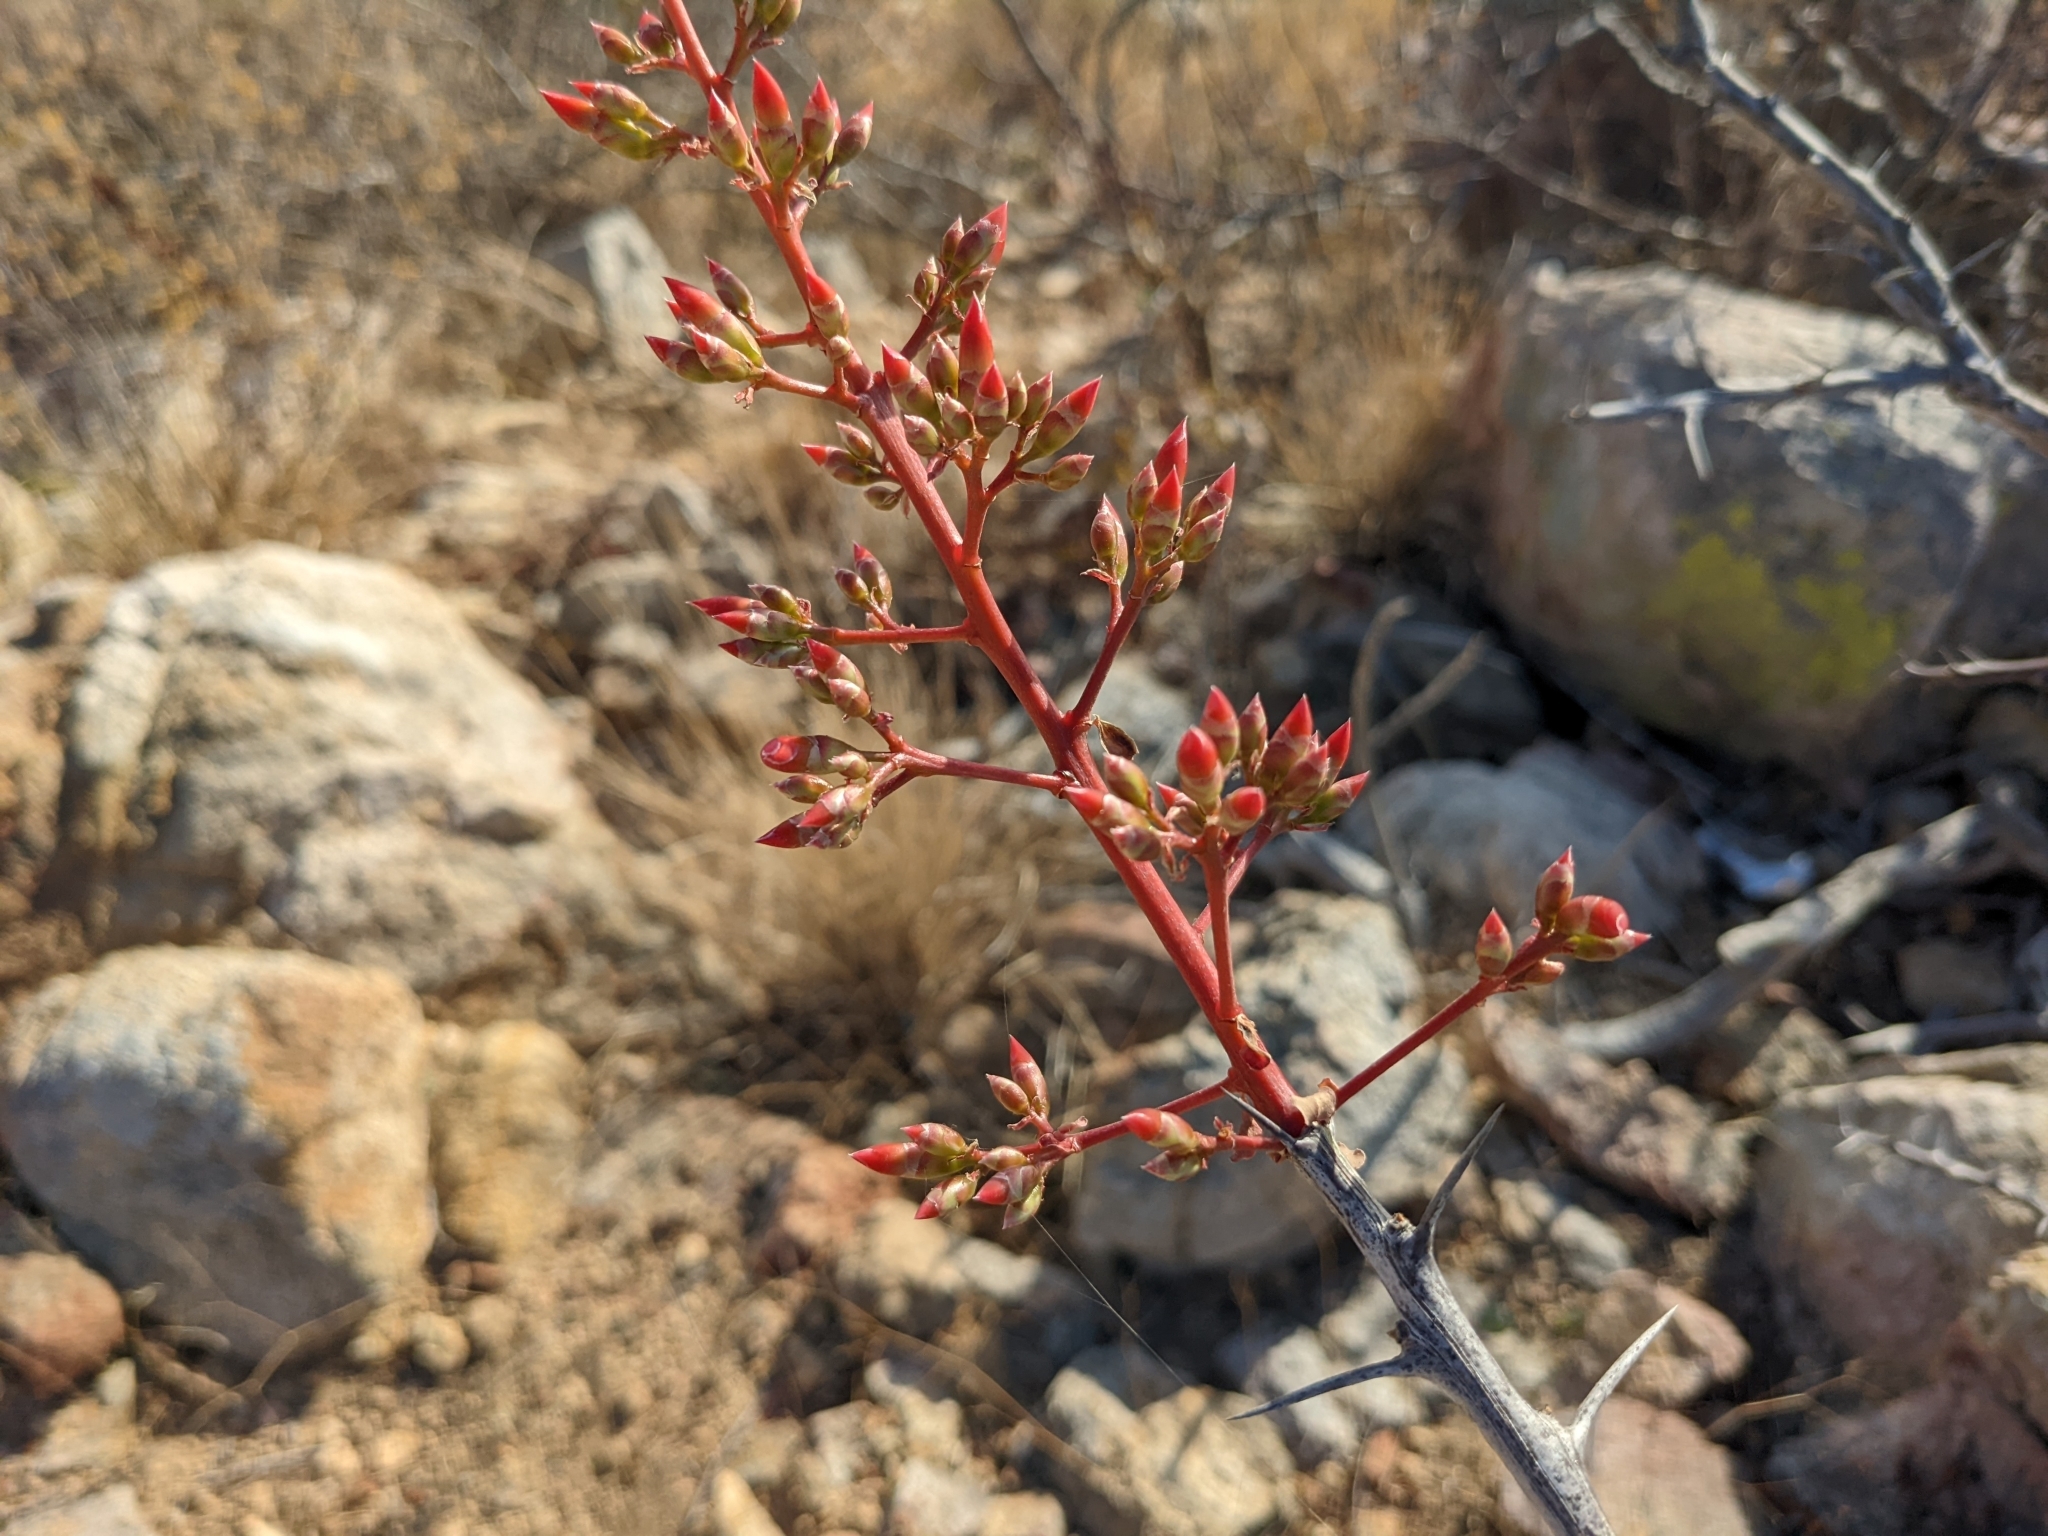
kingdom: Plantae
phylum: Tracheophyta
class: Magnoliopsida
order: Ericales
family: Fouquieriaceae
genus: Fouquieria
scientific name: Fouquieria diguetii
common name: Adam's tree
